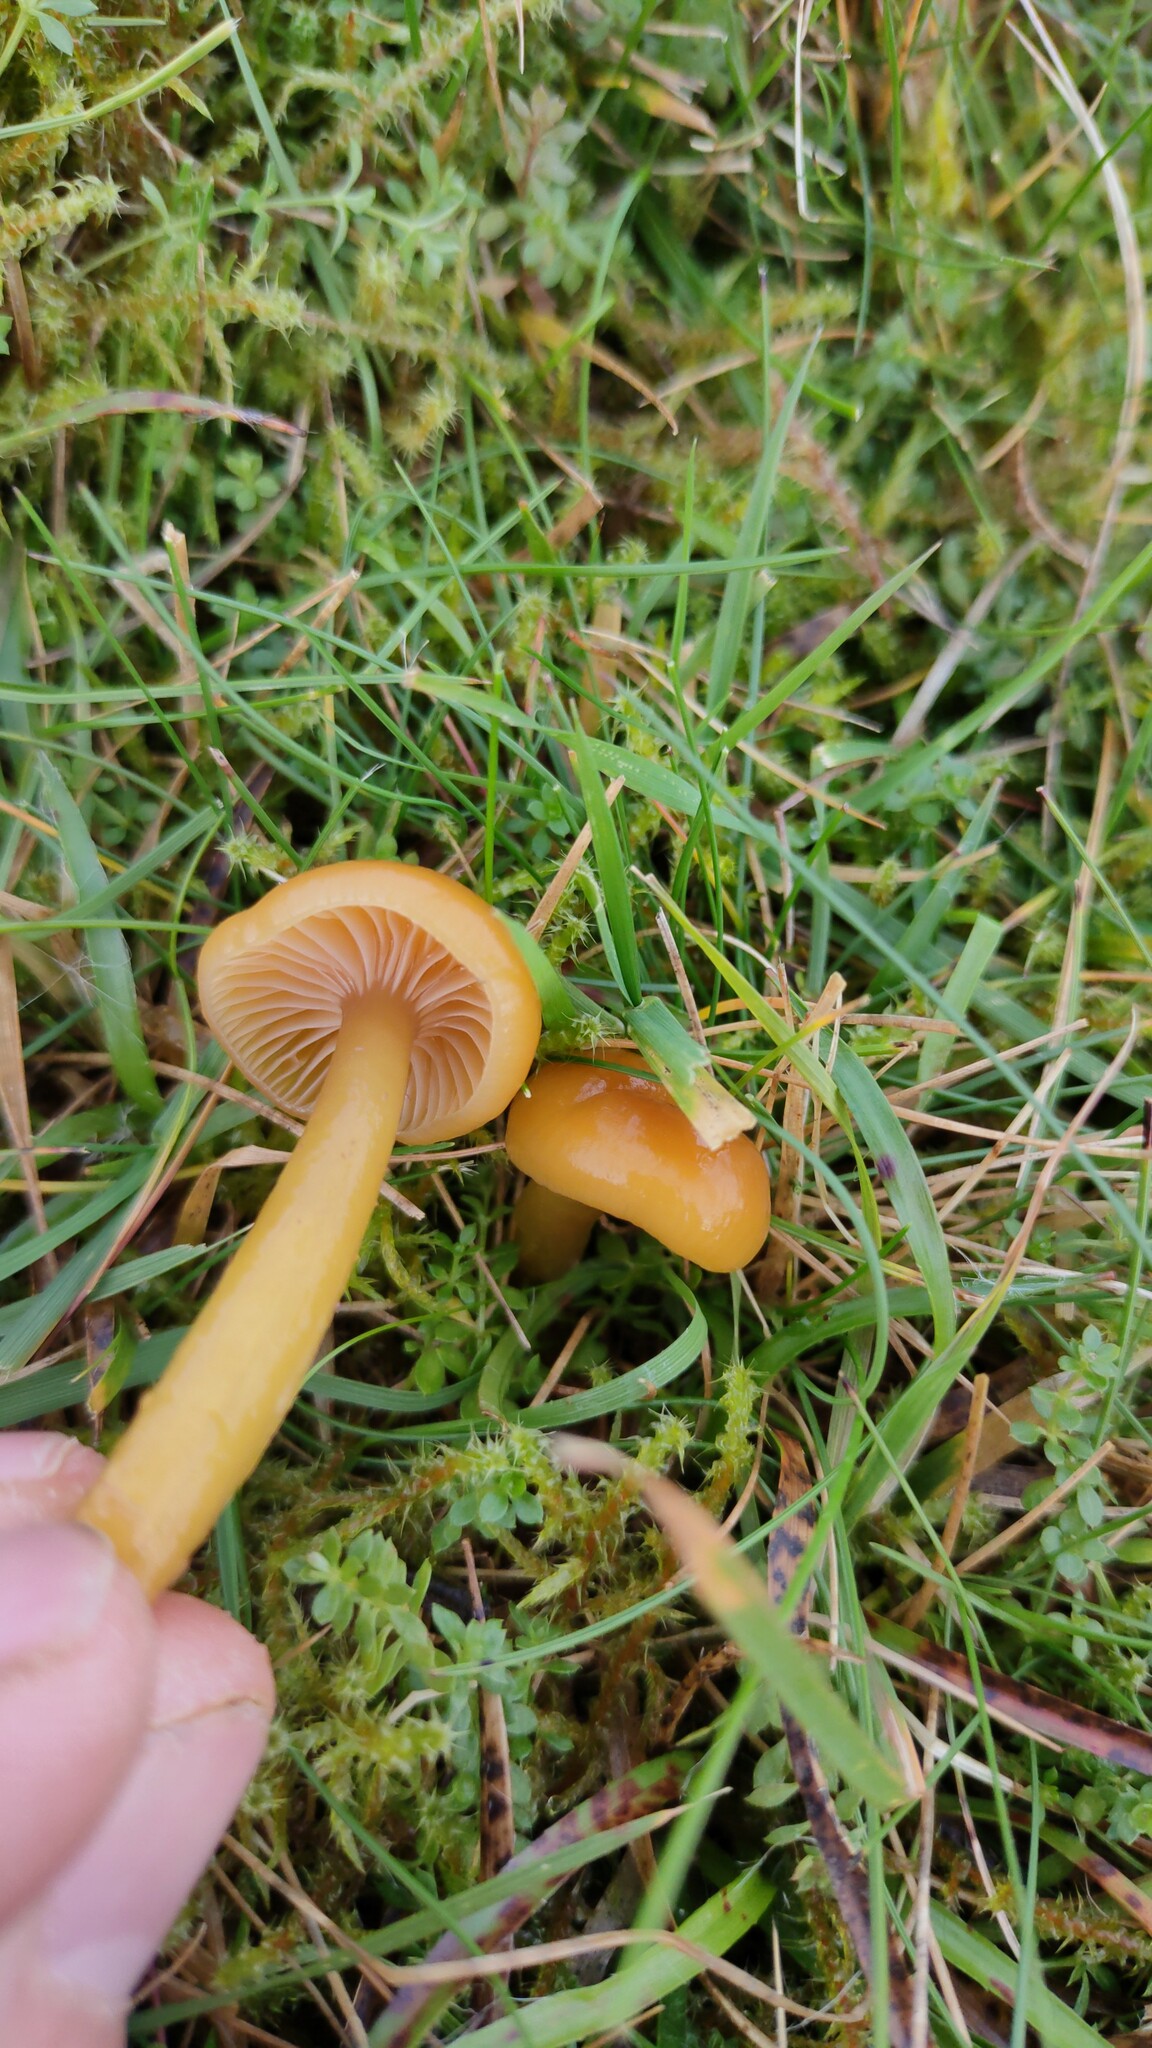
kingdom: Fungi
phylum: Basidiomycota
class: Agaricomycetes
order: Agaricales
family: Hygrophoraceae
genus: Gliophorus
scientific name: Gliophorus laetus
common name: Heath waxcap
